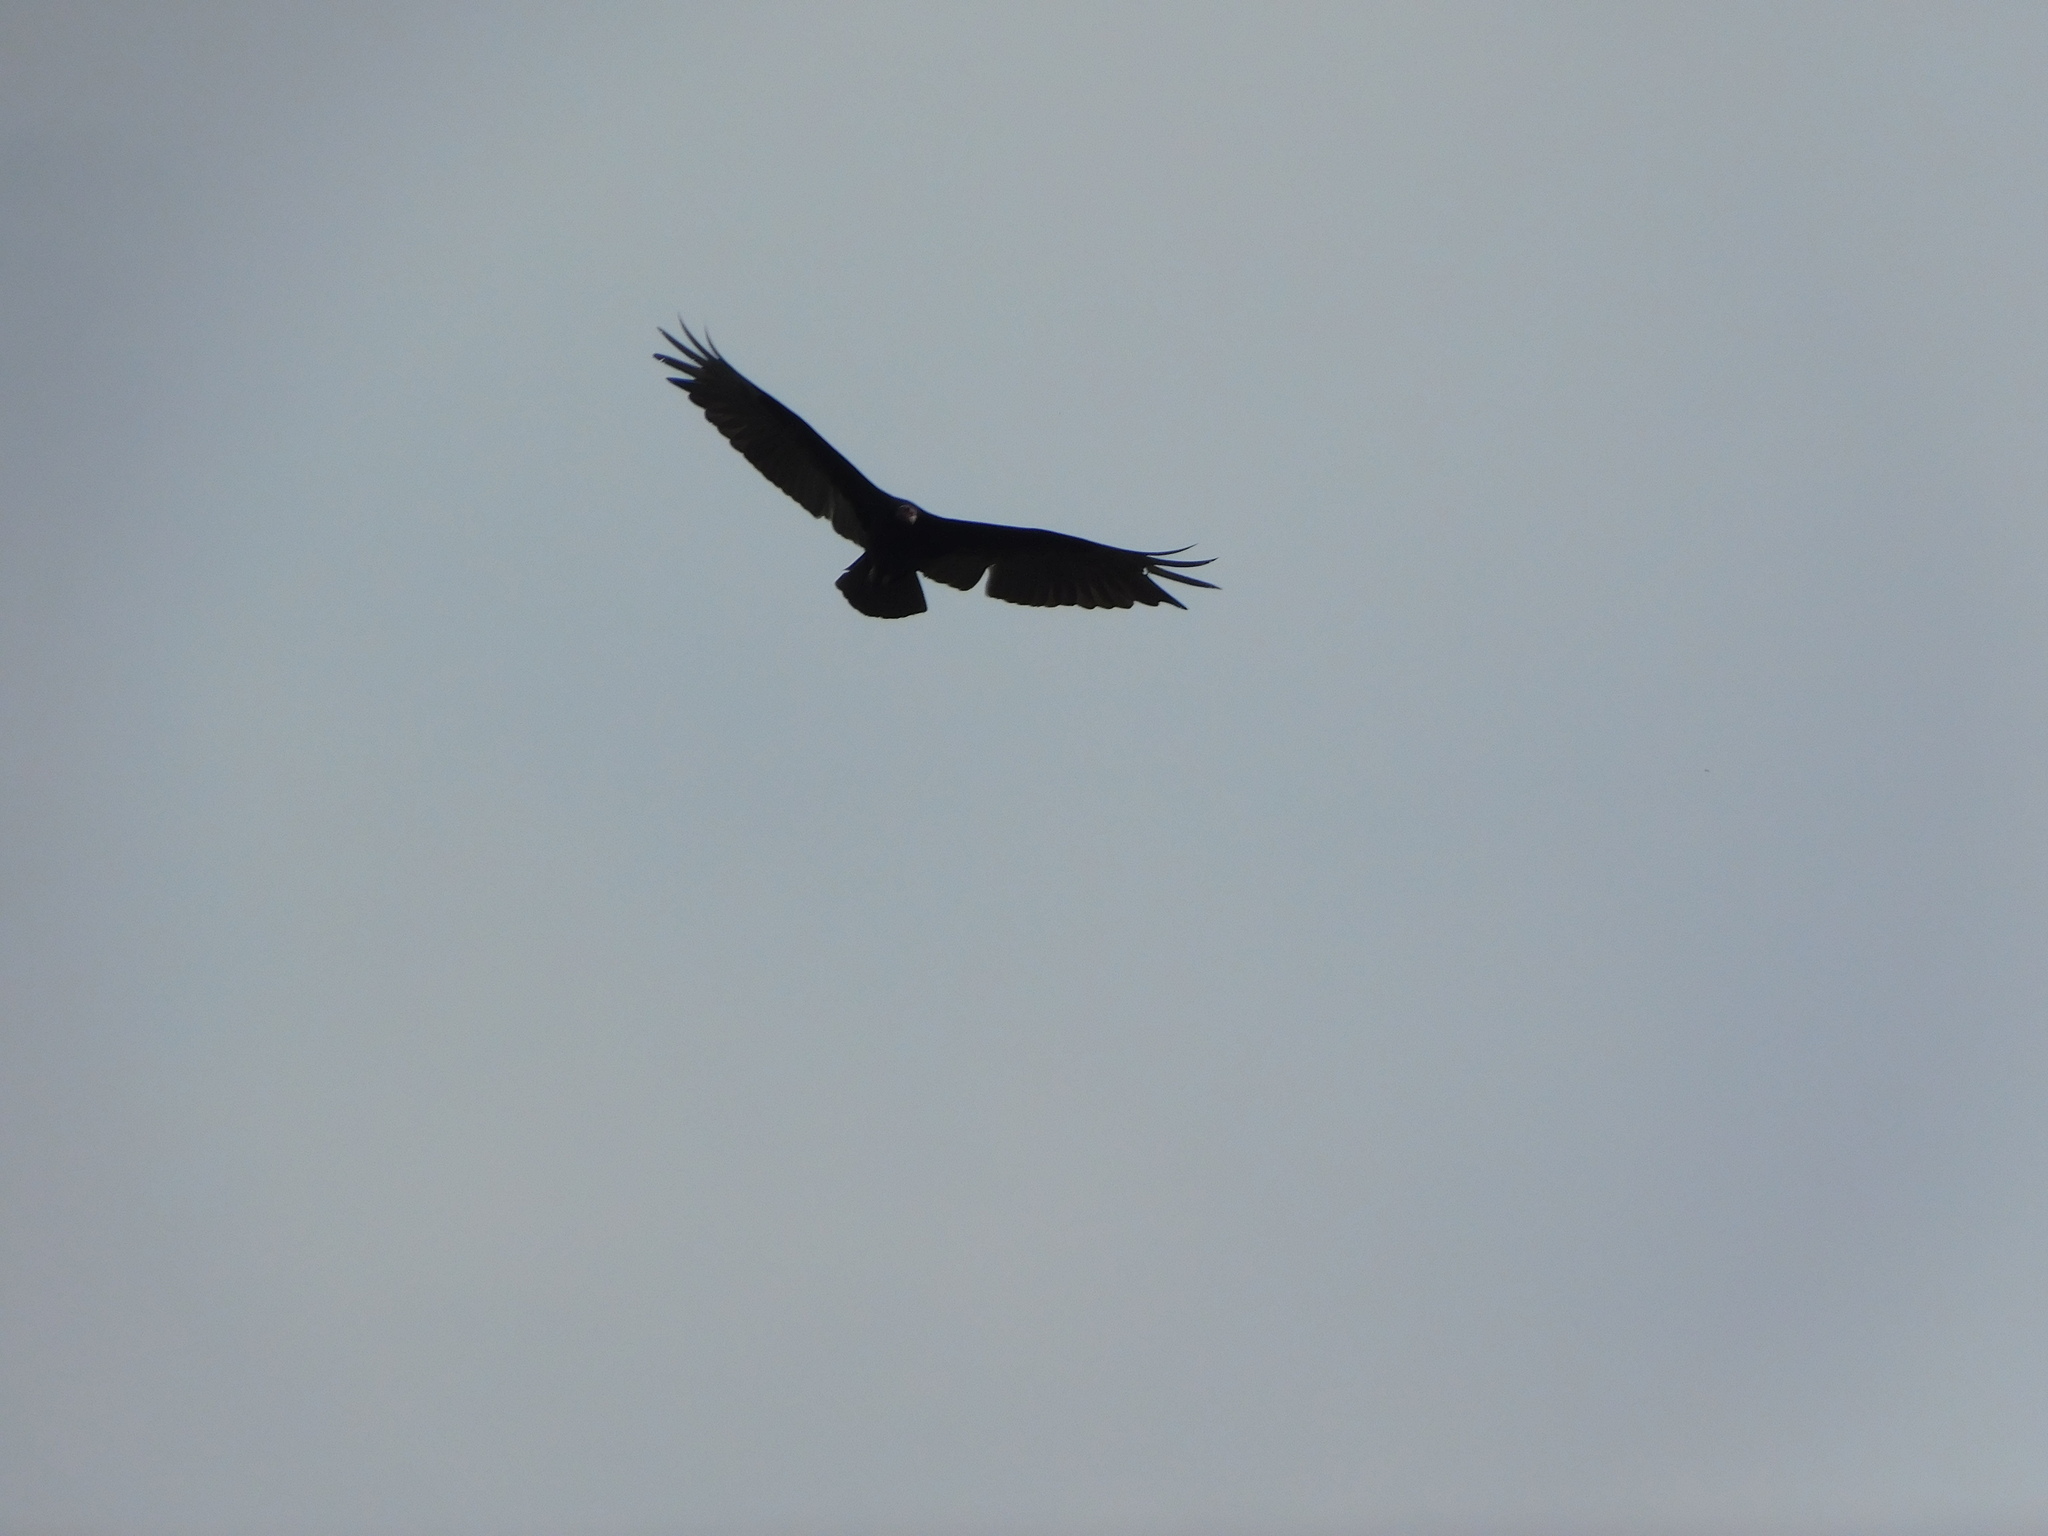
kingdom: Animalia
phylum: Chordata
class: Aves
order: Accipitriformes
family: Cathartidae
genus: Cathartes
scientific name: Cathartes aura
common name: Turkey vulture
